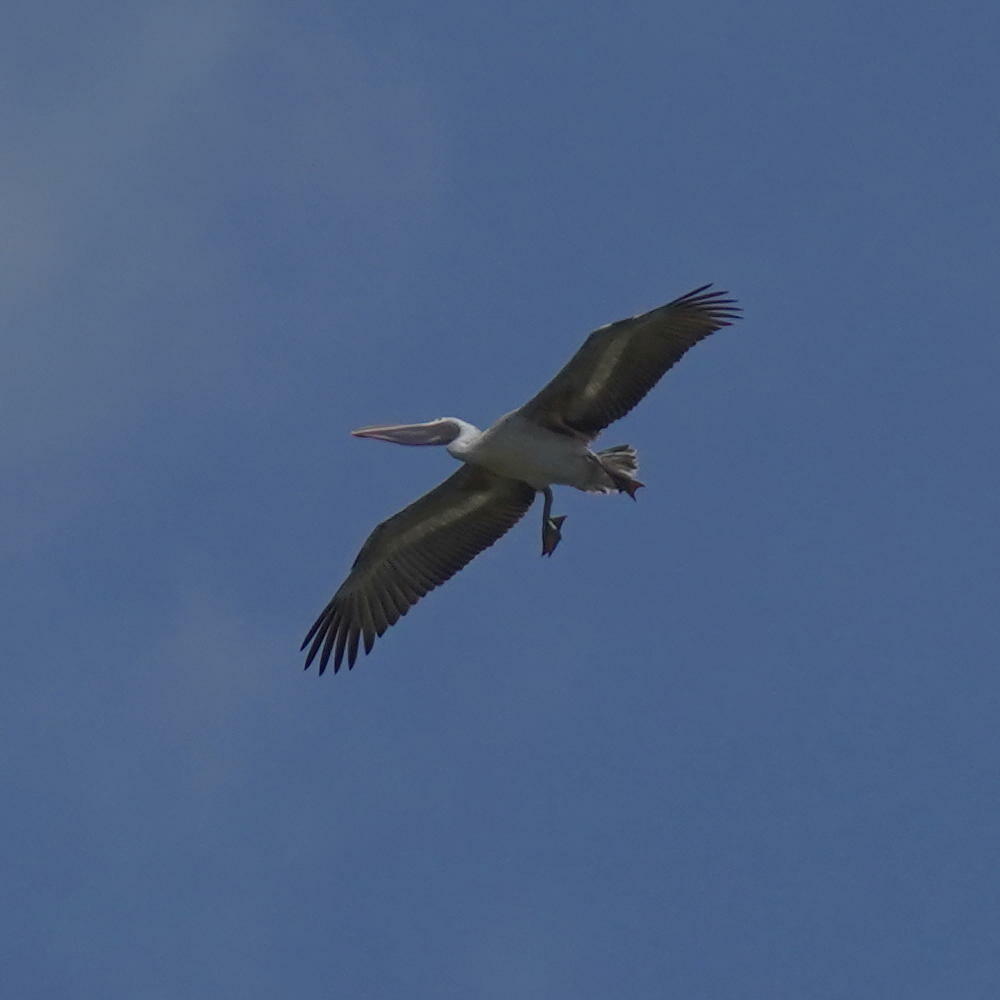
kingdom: Animalia
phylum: Chordata
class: Aves
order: Pelecaniformes
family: Pelecanidae
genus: Pelecanus
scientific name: Pelecanus philippensis
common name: Spot-billed pelican
